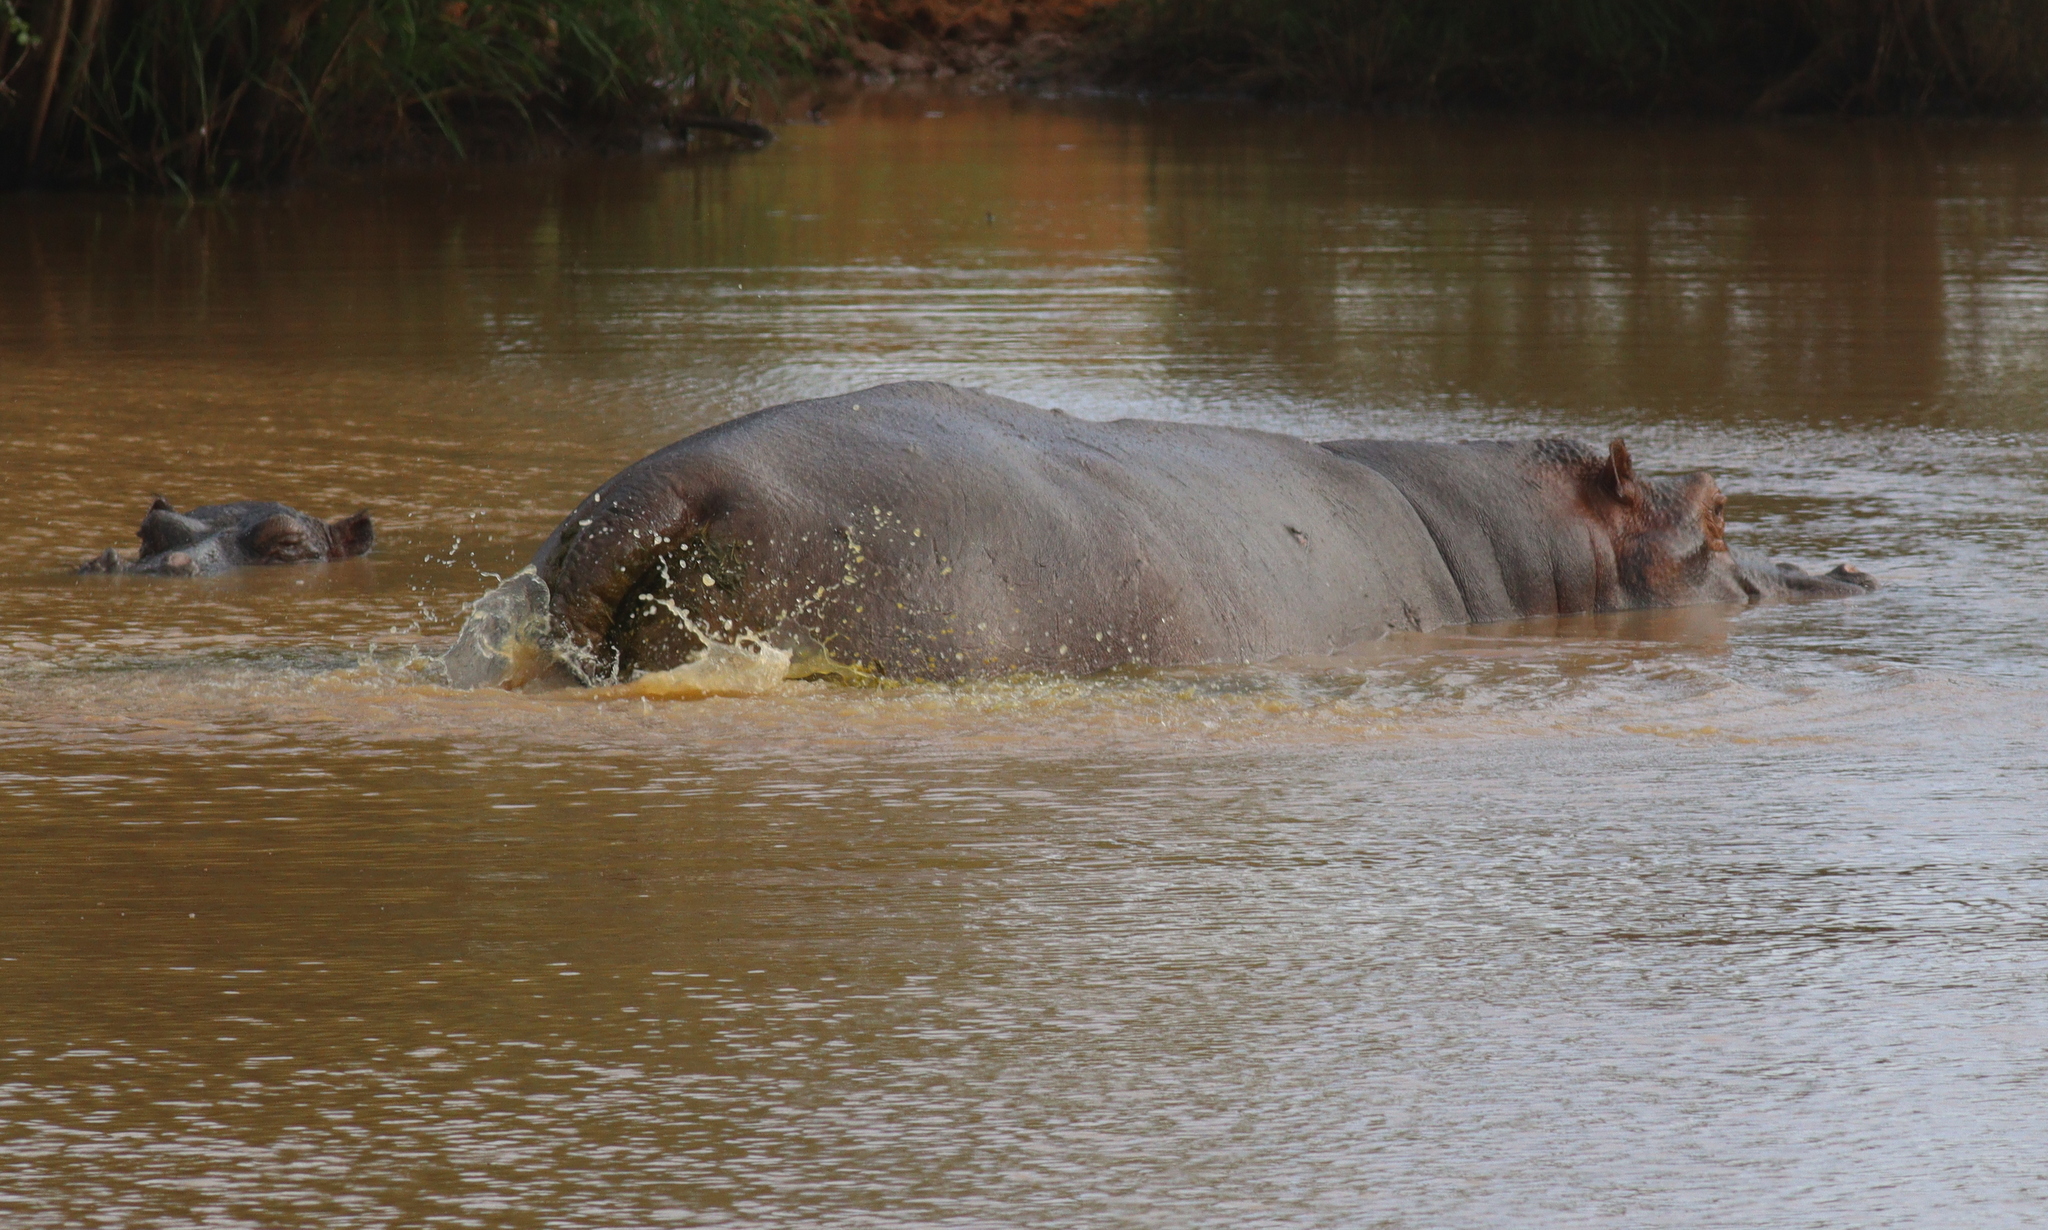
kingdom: Animalia
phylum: Chordata
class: Mammalia
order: Artiodactyla
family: Hippopotamidae
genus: Hippopotamus
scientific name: Hippopotamus amphibius
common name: Common hippopotamus
